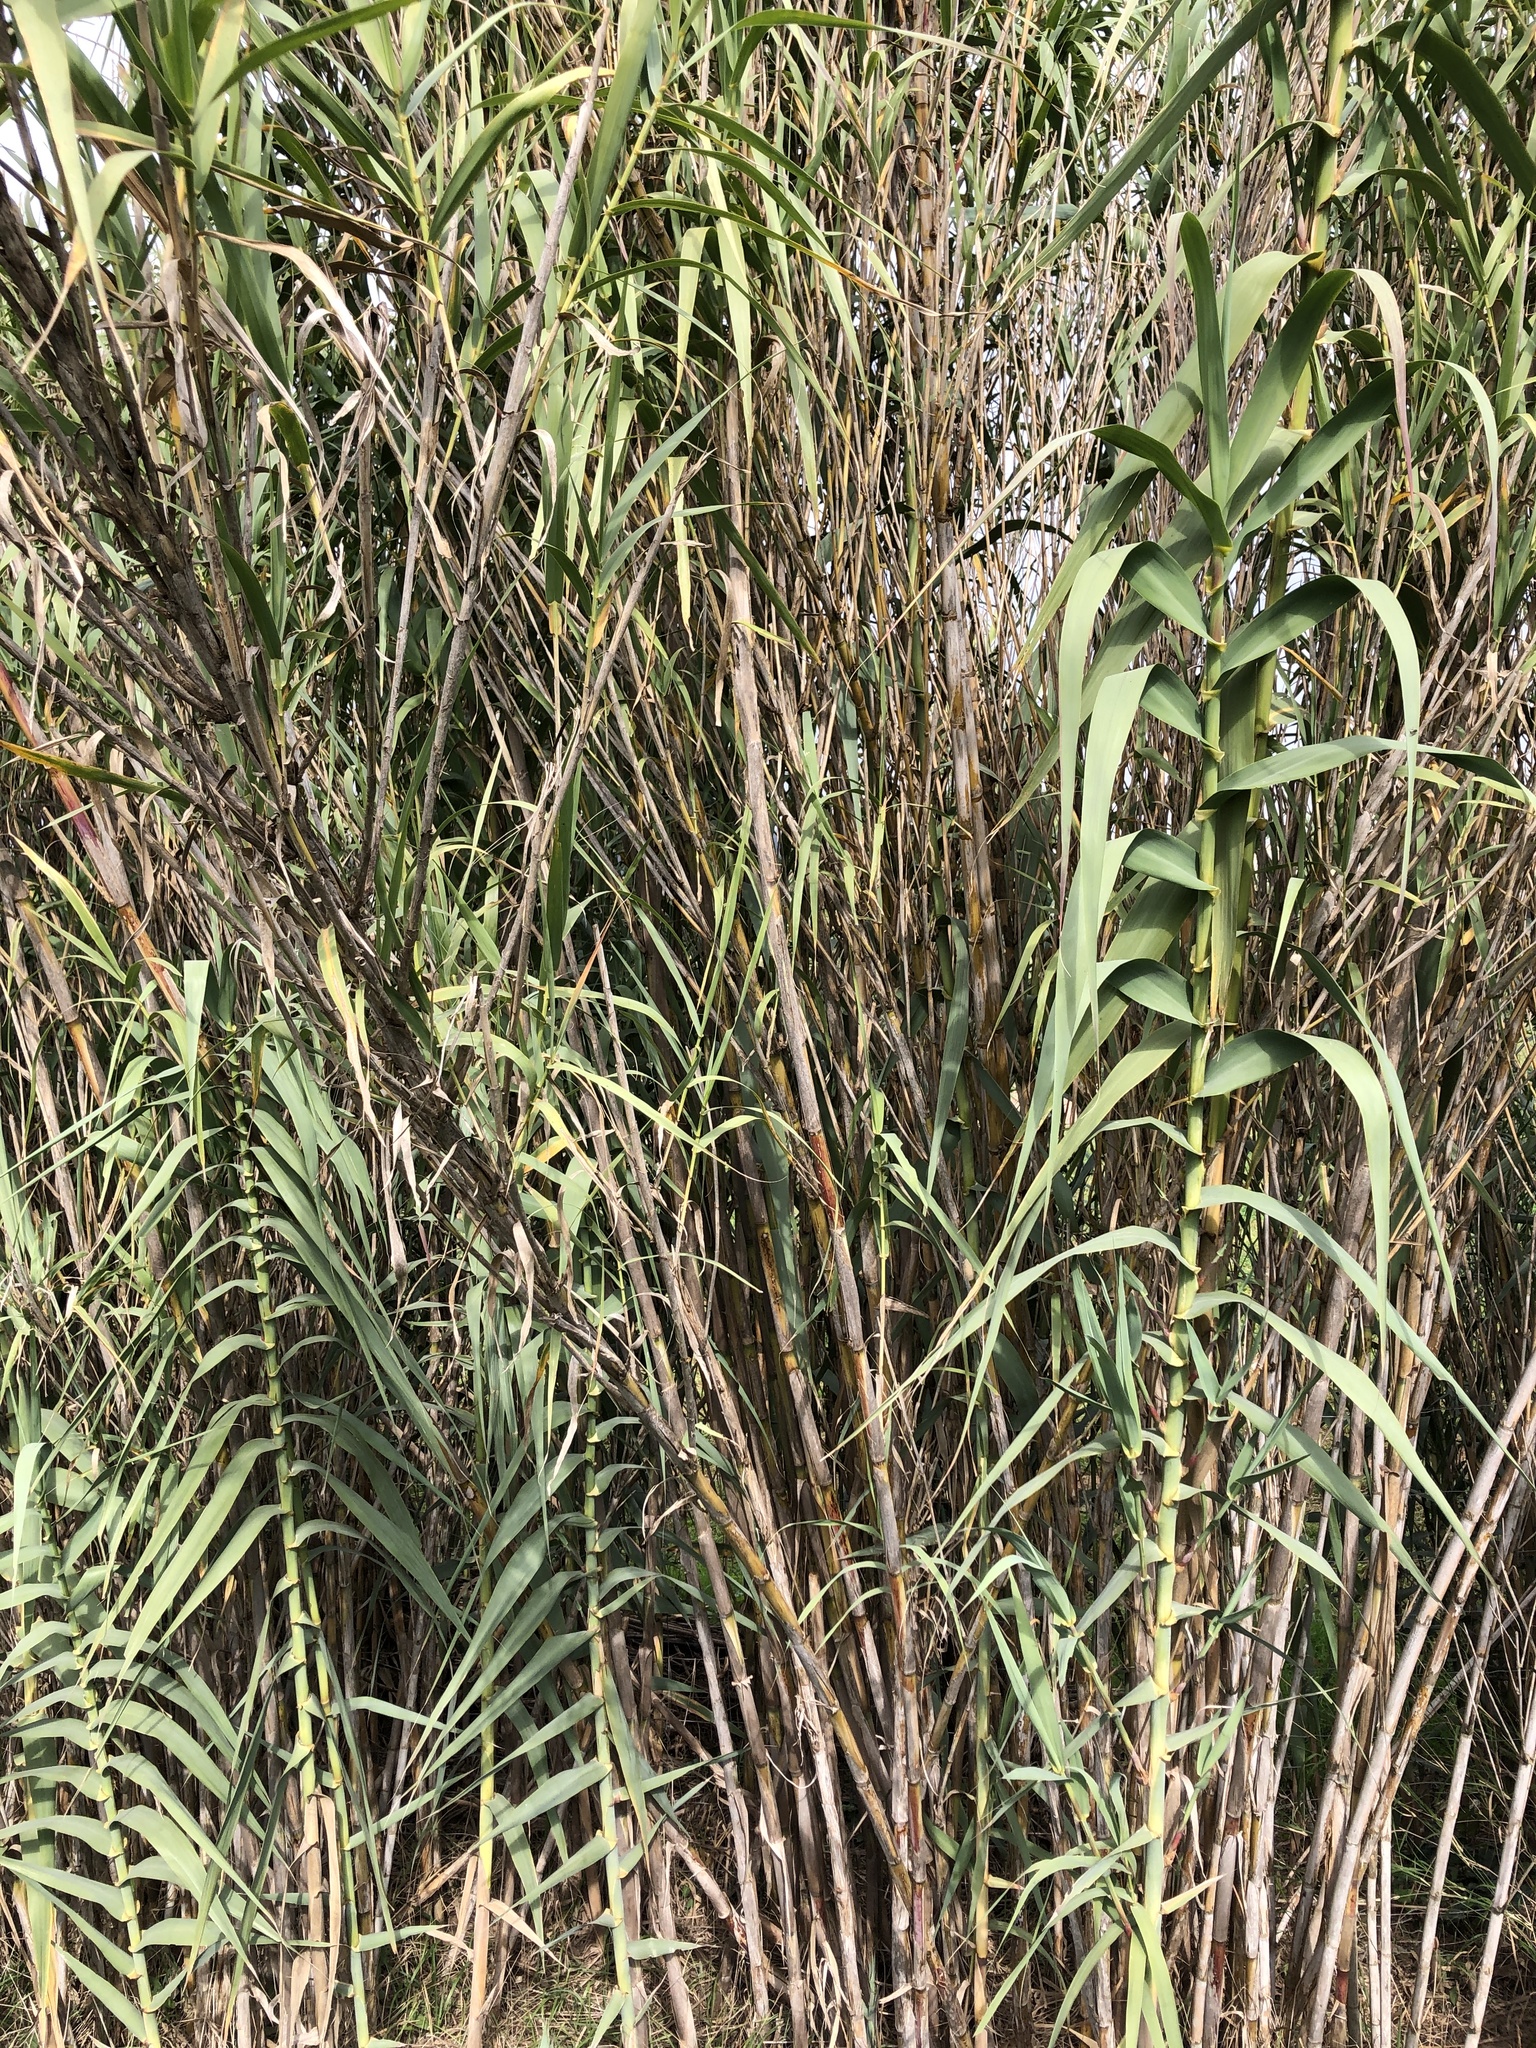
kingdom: Plantae
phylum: Tracheophyta
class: Liliopsida
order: Poales
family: Poaceae
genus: Arundo
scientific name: Arundo donax
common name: Giant reed
